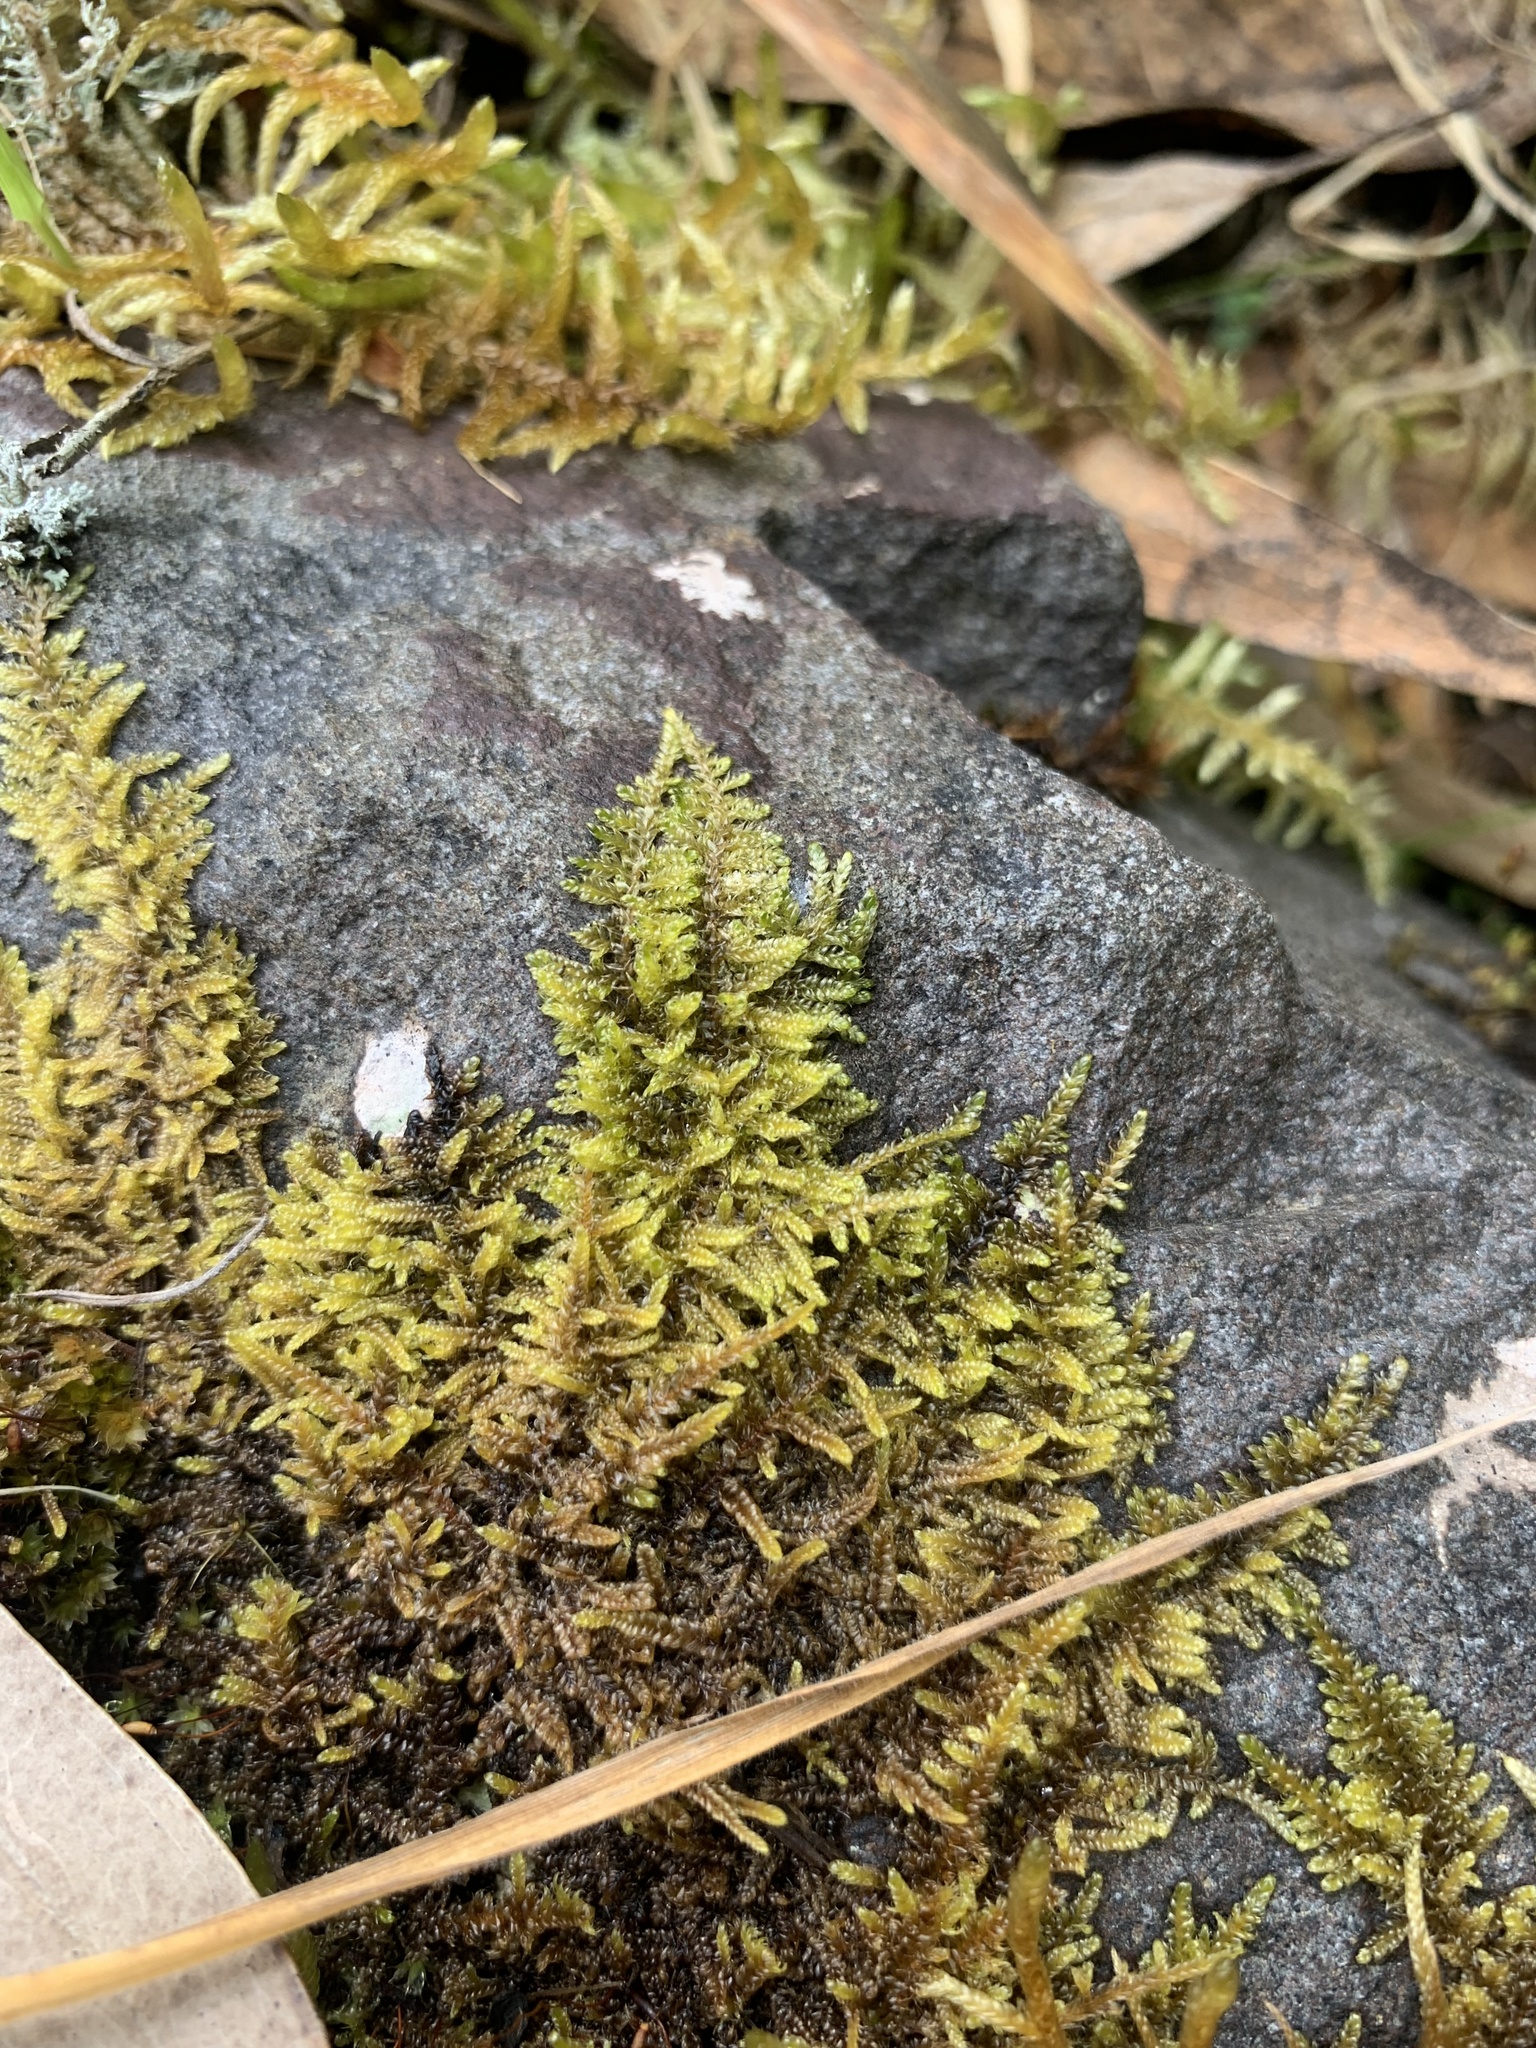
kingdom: Plantae
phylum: Bryophyta
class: Bryopsida
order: Hypnales
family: Hypnaceae
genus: Hypnum
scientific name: Hypnum cupressiforme
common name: Cypress-leaved plait-moss
